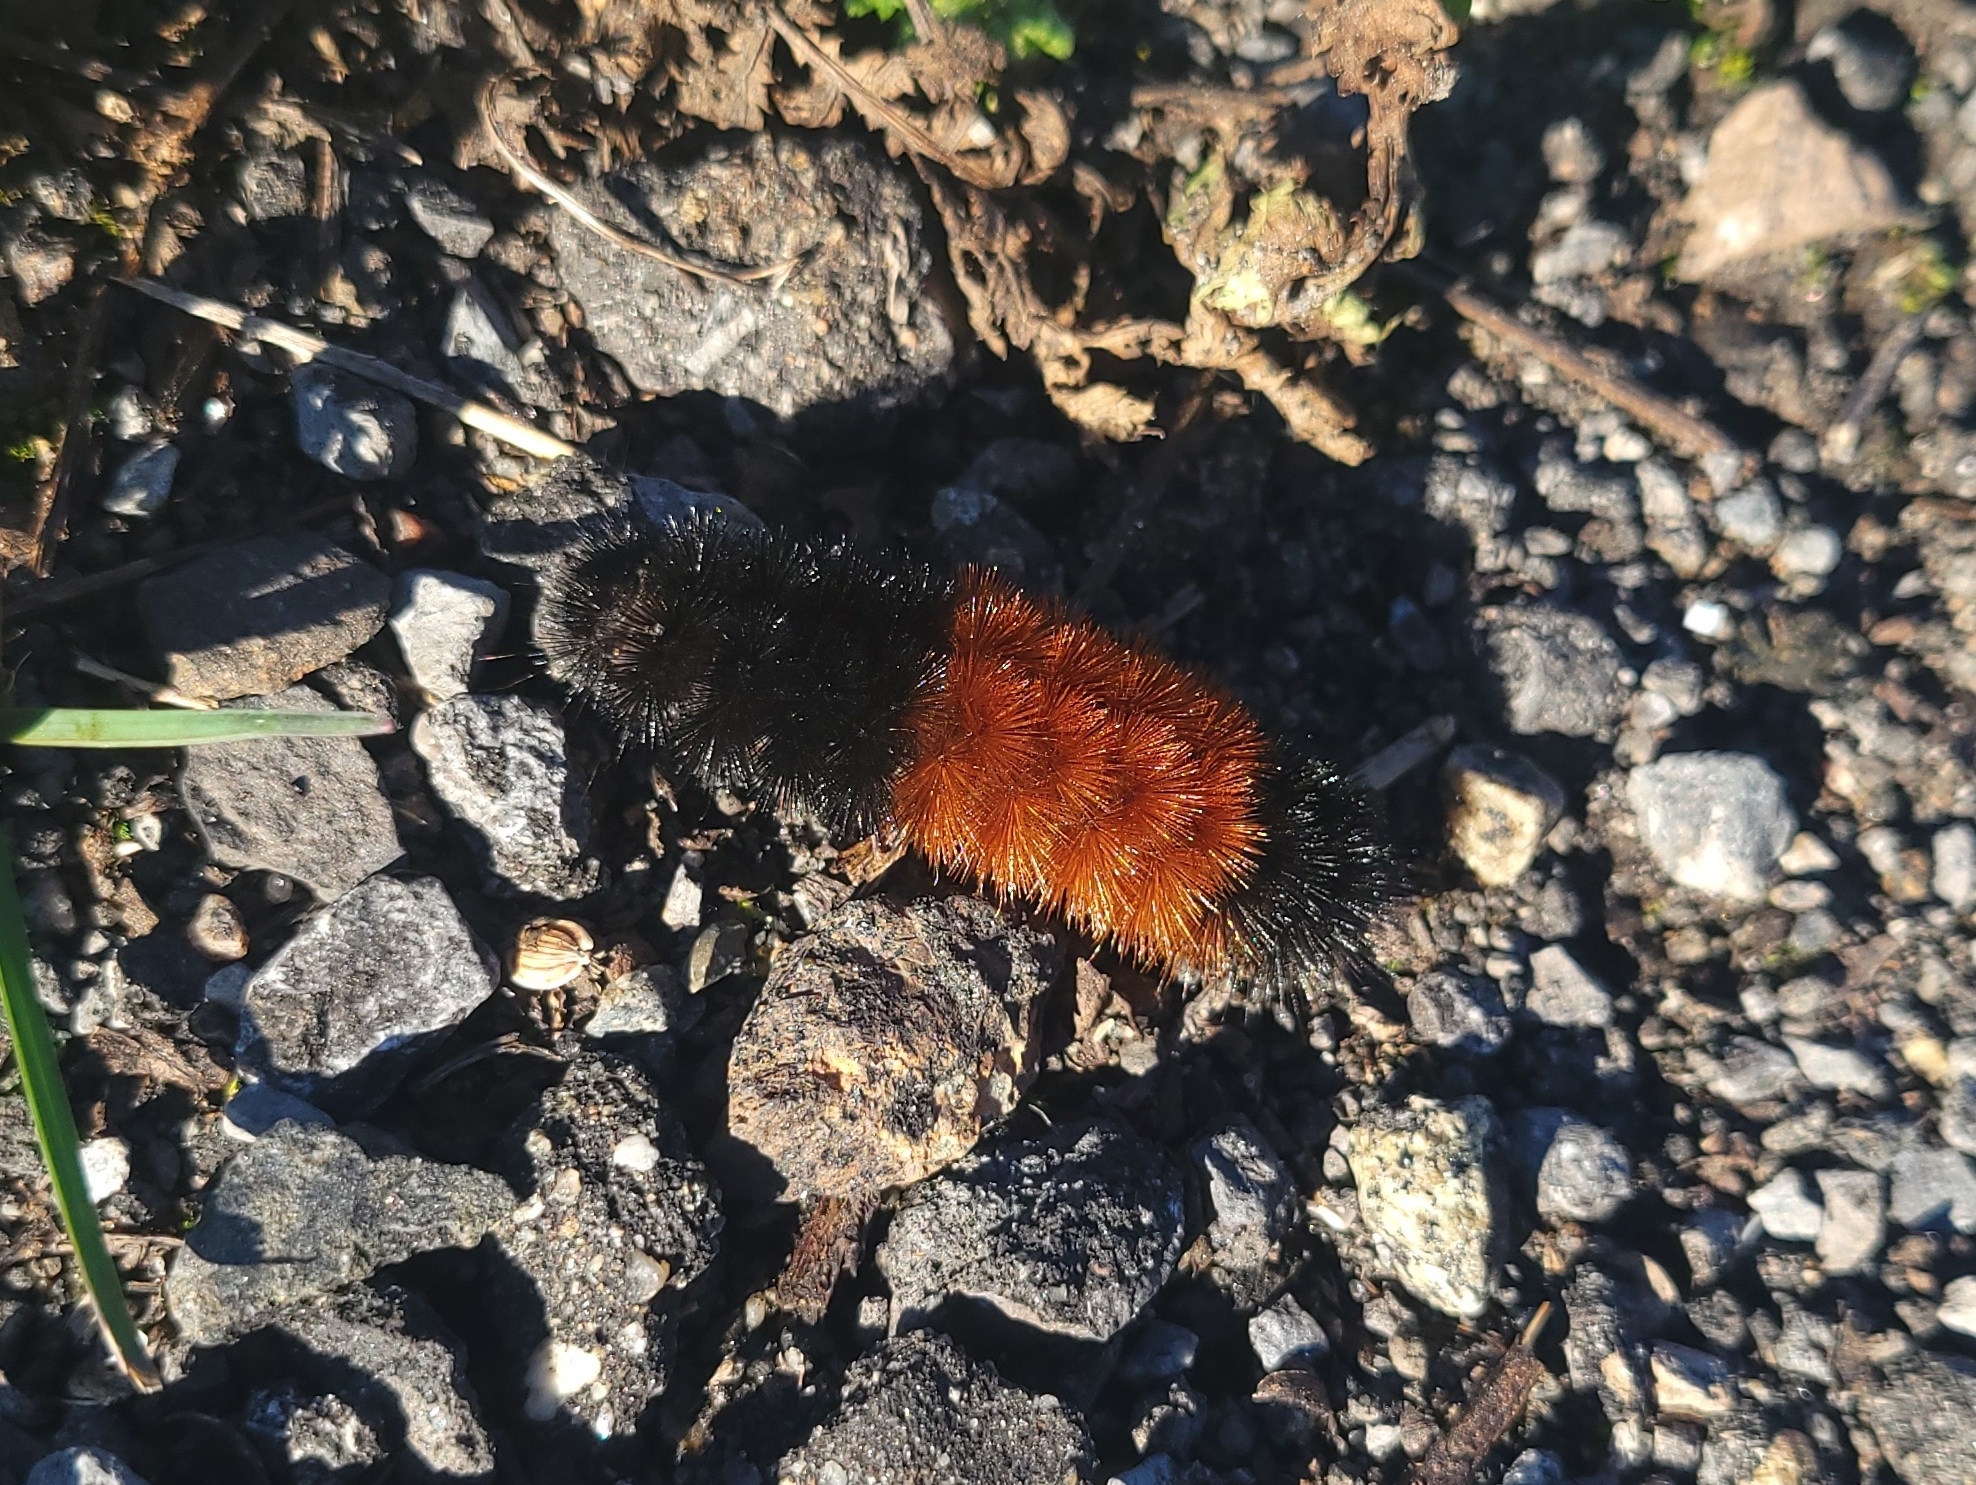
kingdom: Animalia
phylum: Arthropoda
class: Insecta
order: Lepidoptera
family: Erebidae
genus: Pyrrharctia
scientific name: Pyrrharctia isabella
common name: Isabella tiger moth
